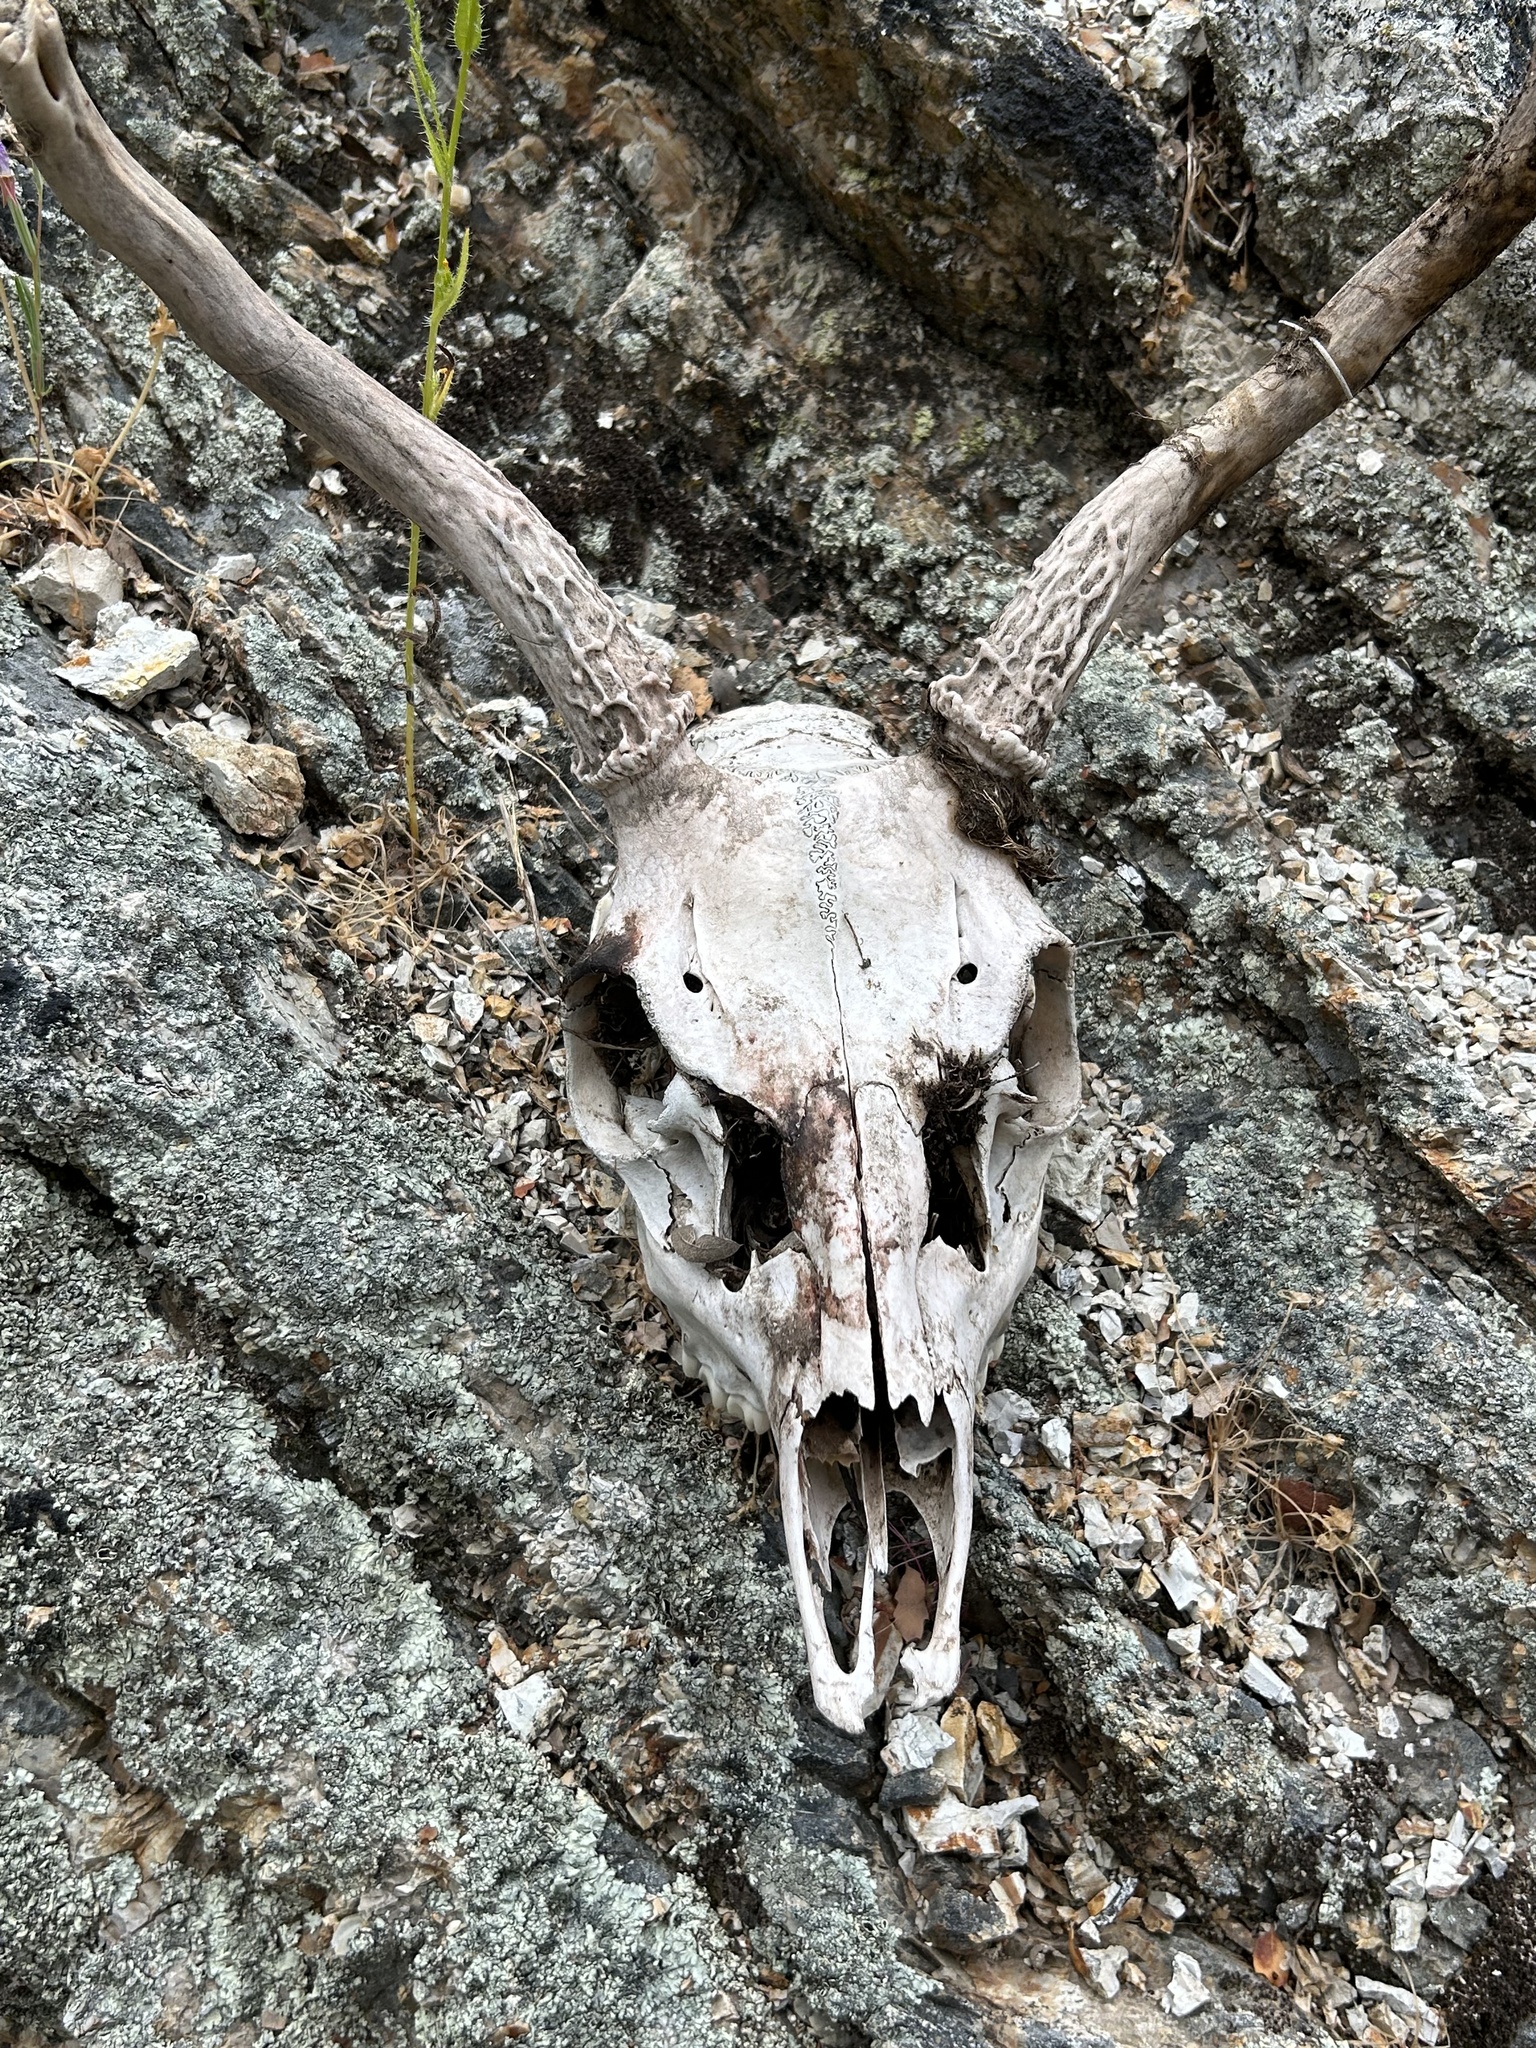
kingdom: Animalia
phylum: Chordata
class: Mammalia
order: Artiodactyla
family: Cervidae
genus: Odocoileus
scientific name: Odocoileus hemionus
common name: Mule deer
